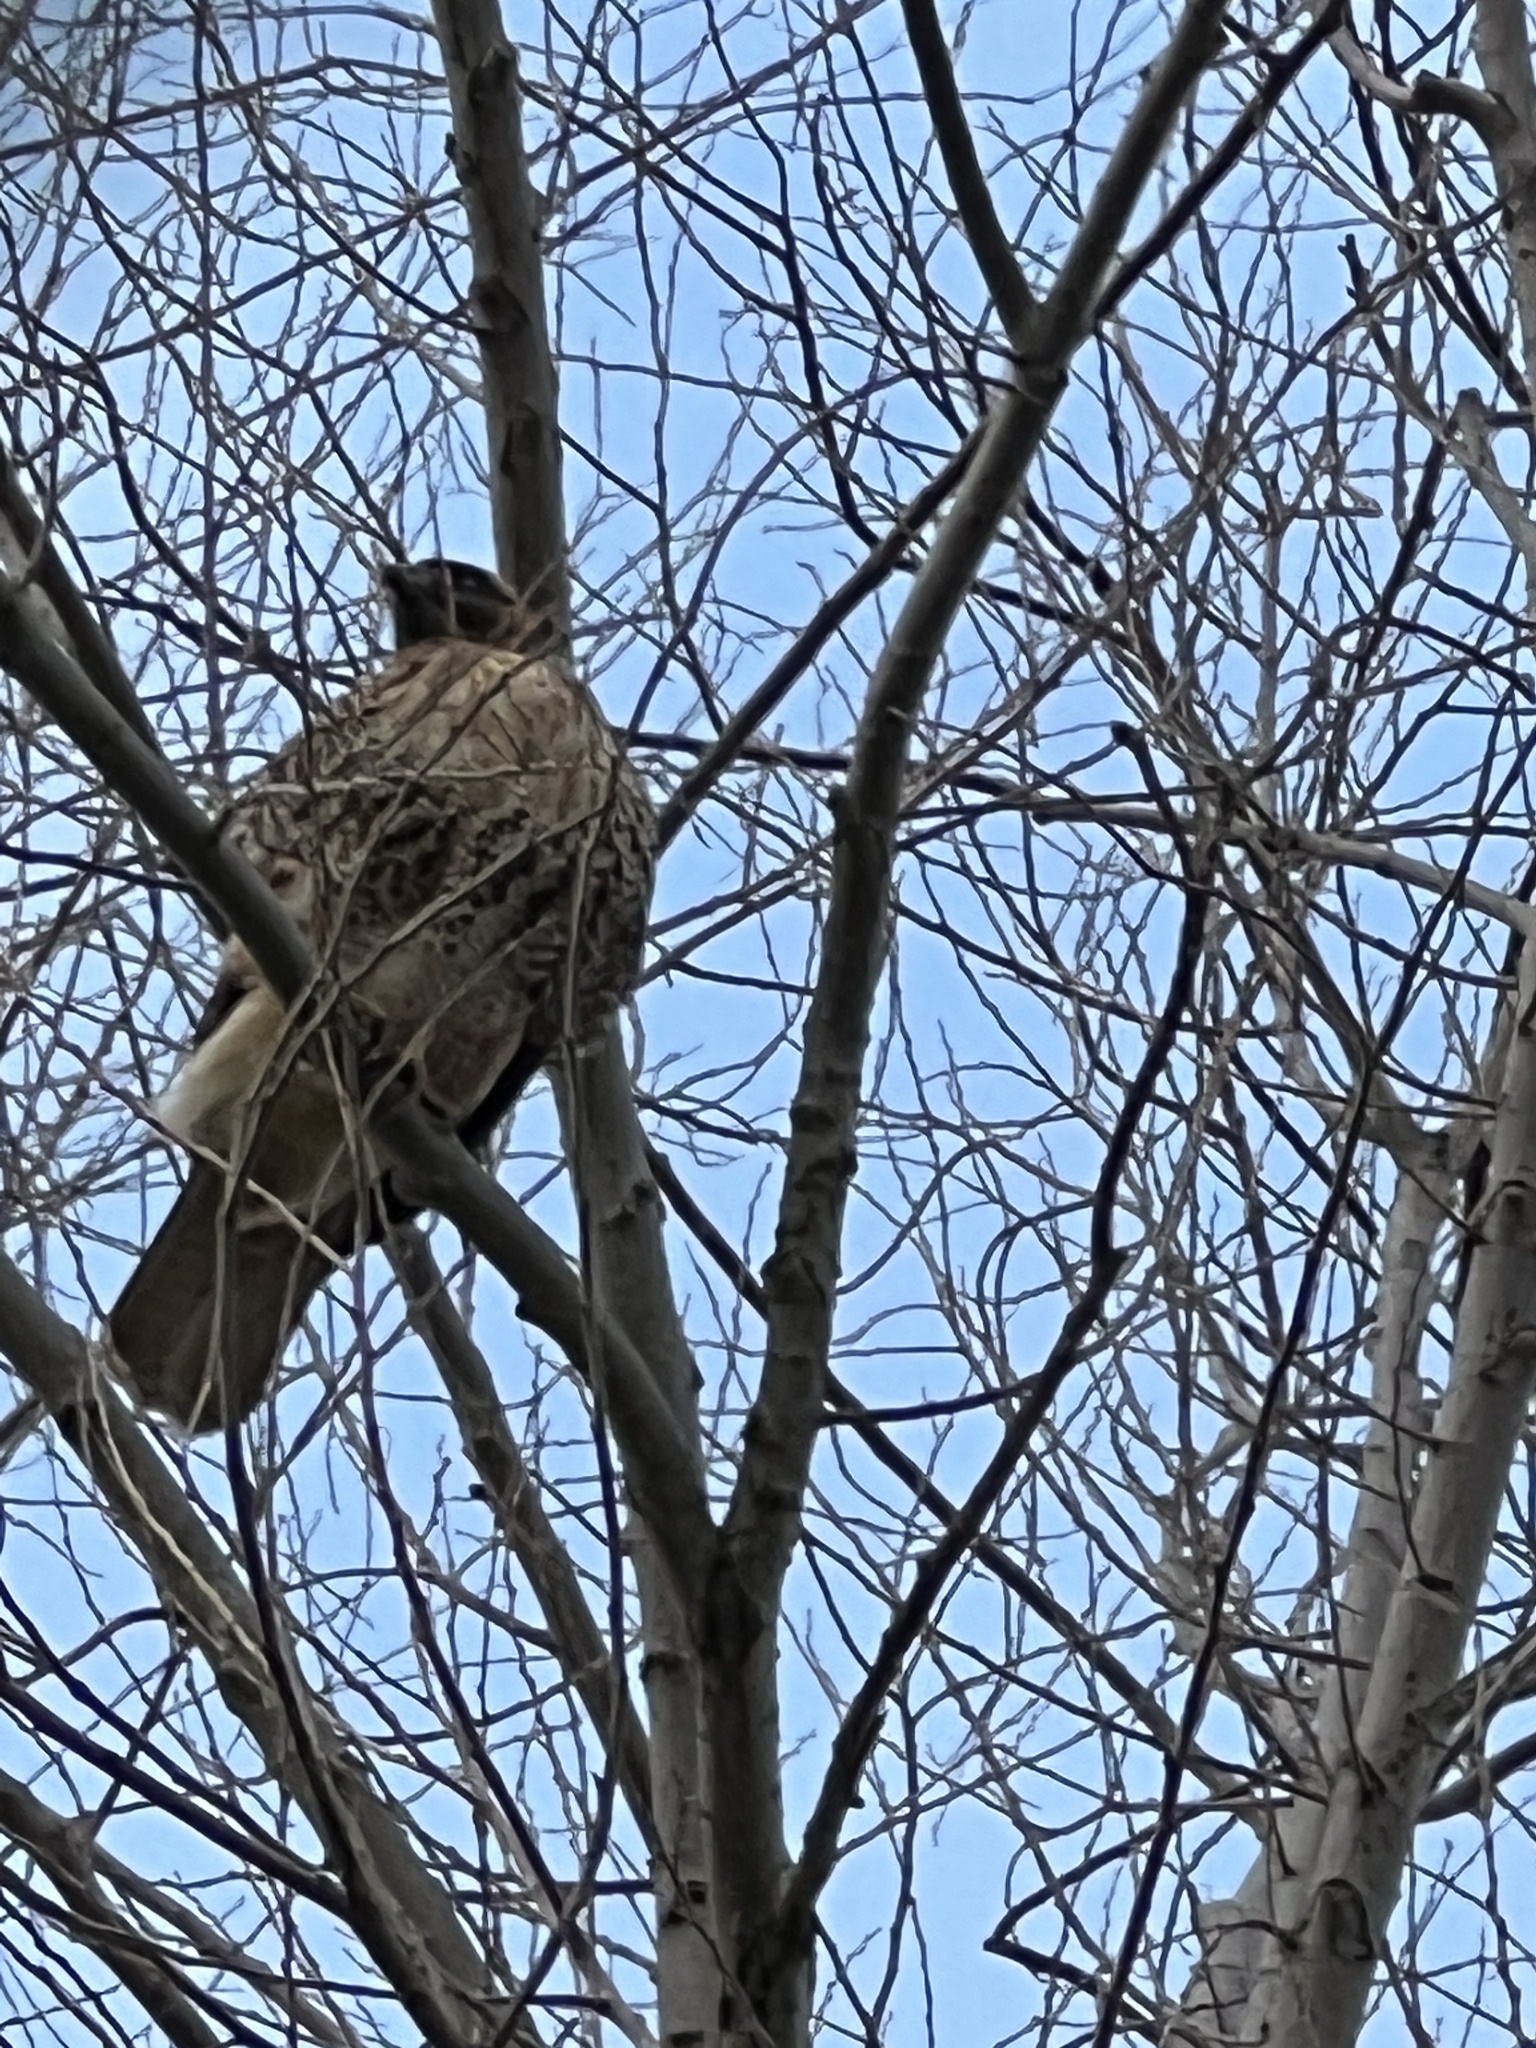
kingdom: Animalia
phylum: Chordata
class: Aves
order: Accipitriformes
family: Accipitridae
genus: Buteo
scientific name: Buteo jamaicensis
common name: Red-tailed hawk
